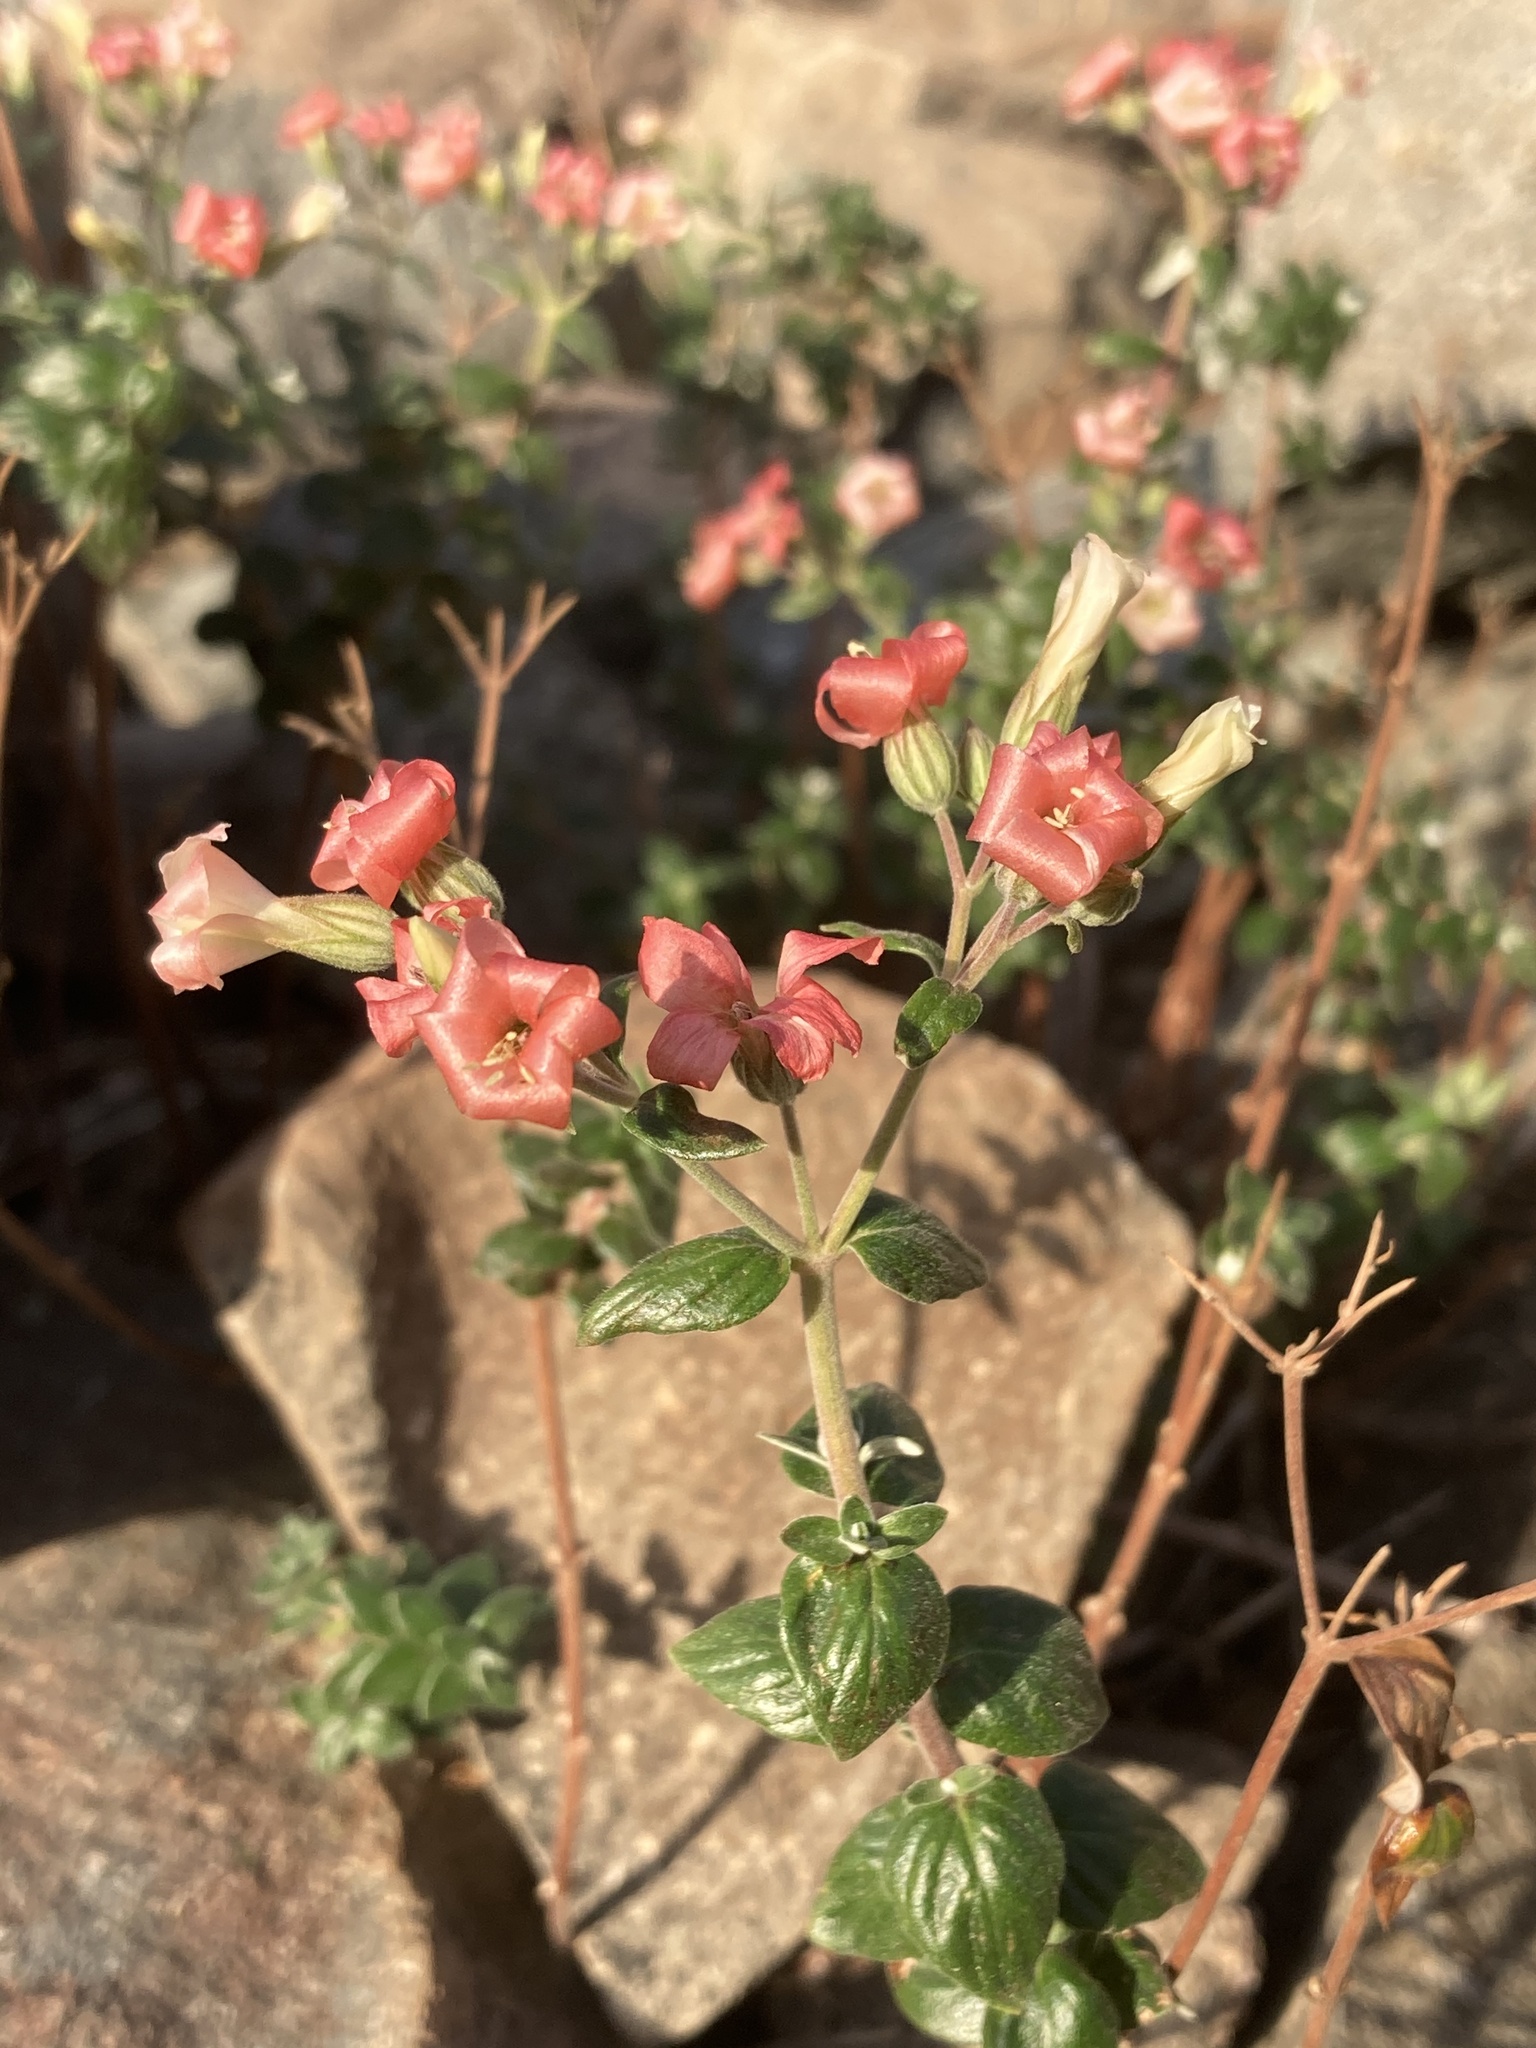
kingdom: Plantae
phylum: Tracheophyta
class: Magnoliopsida
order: Geraniales
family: Vivianiaceae
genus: Viviania
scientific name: Viviania marifolia
